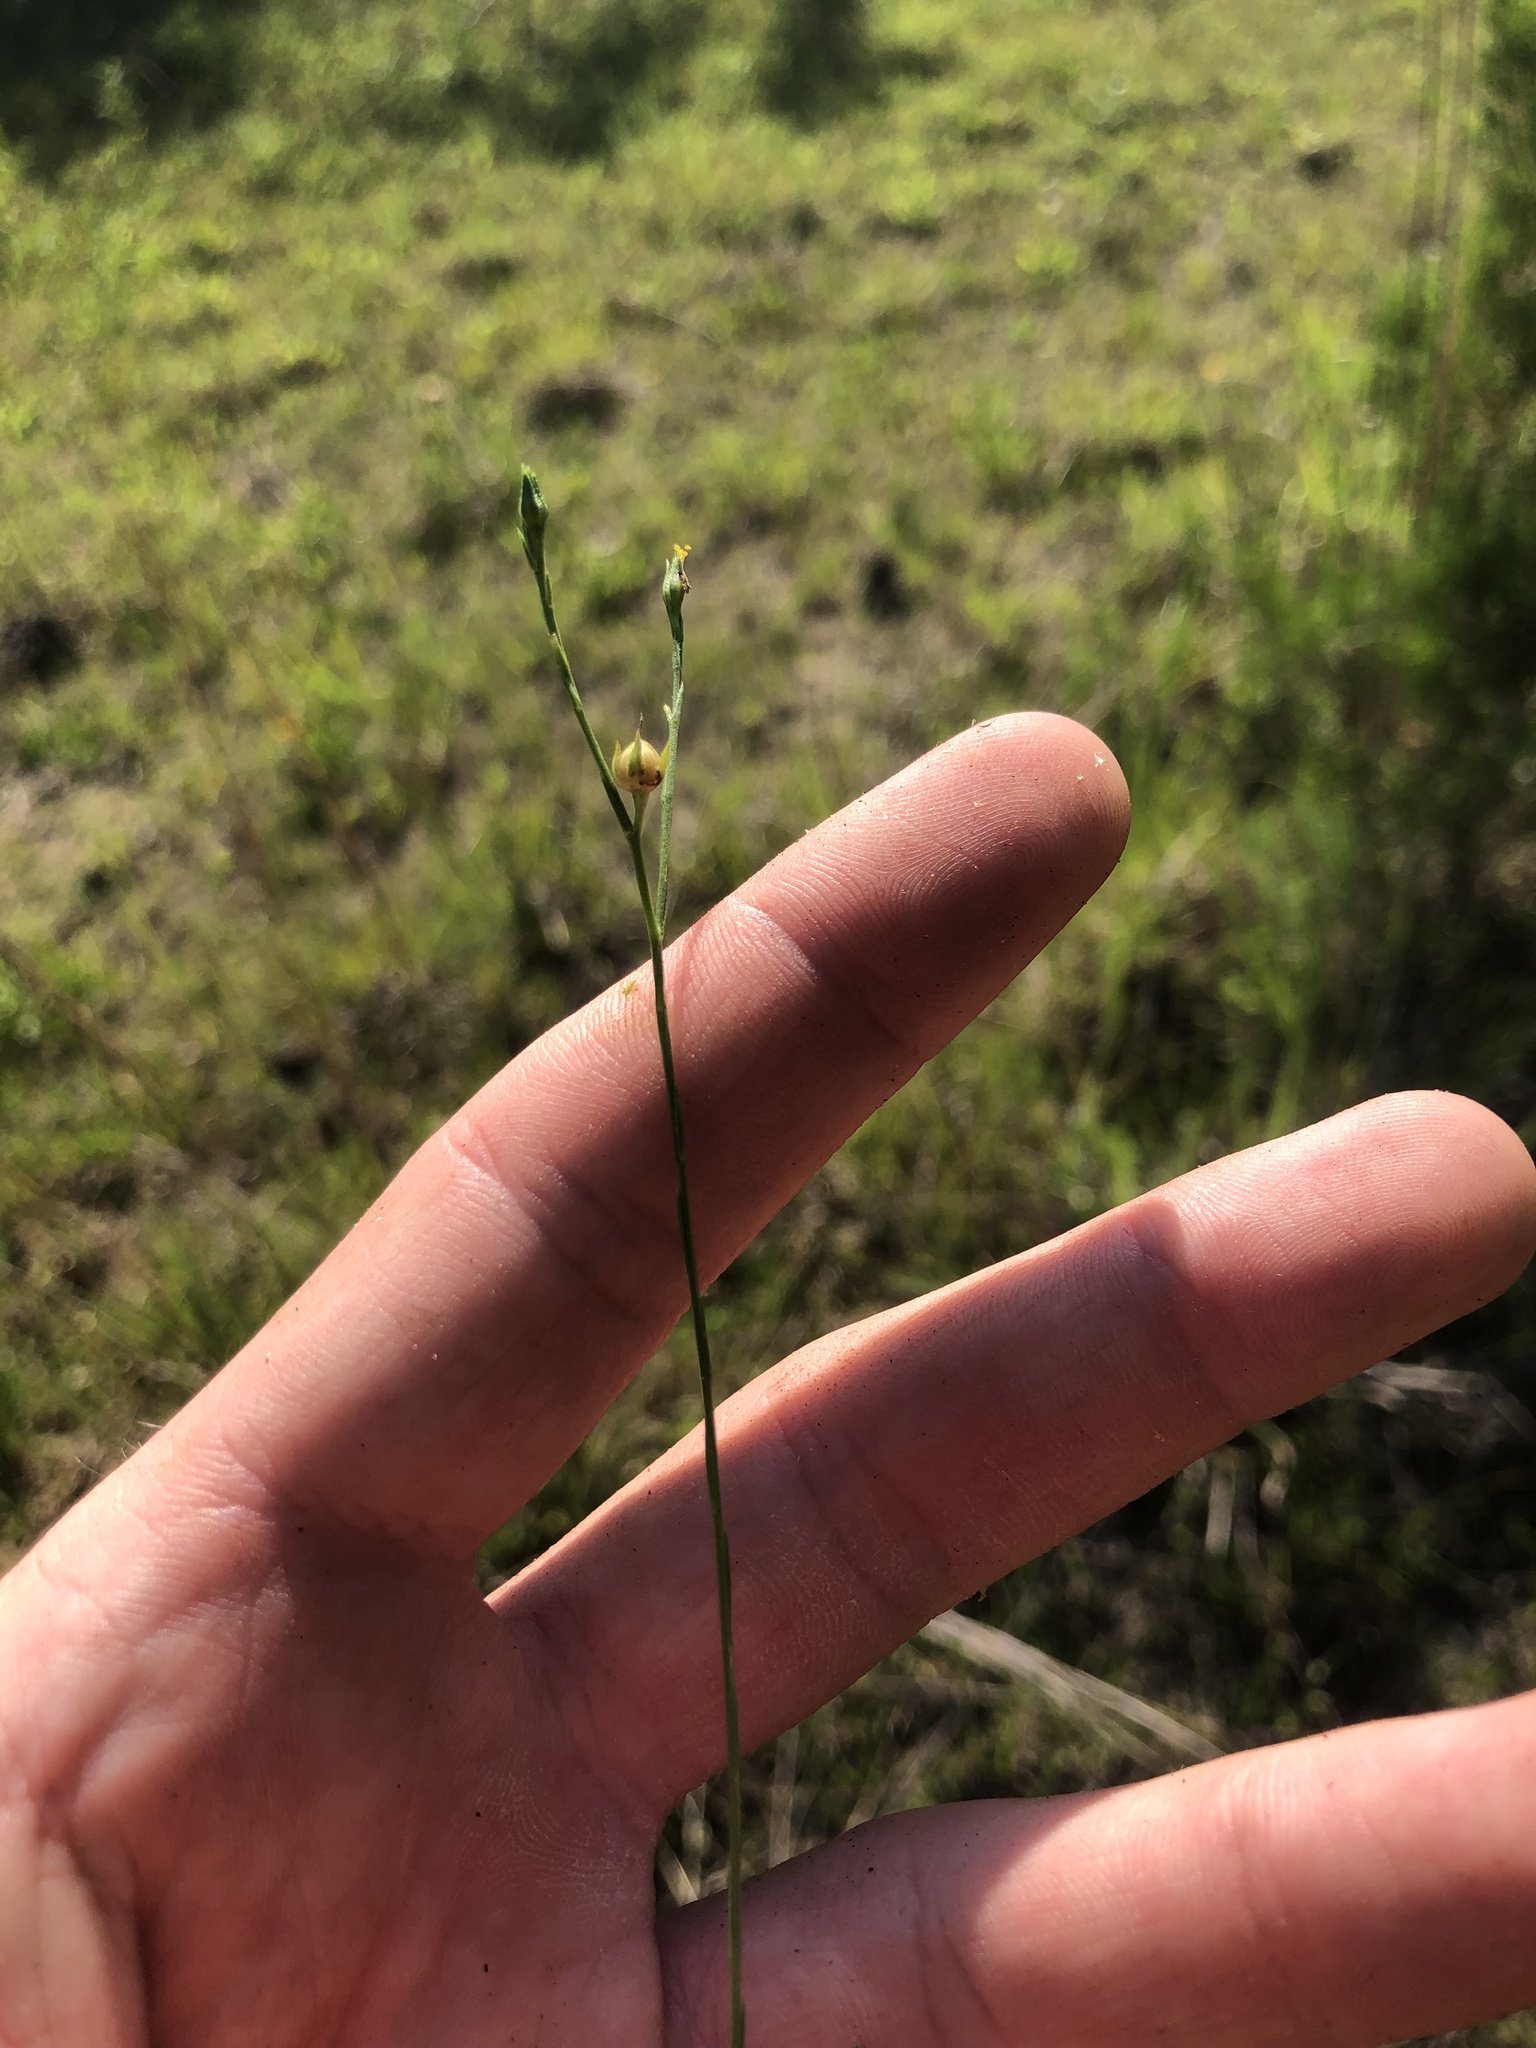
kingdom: Plantae
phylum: Tracheophyta
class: Magnoliopsida
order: Malpighiales
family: Linaceae
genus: Linum
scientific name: Linum sulcatum
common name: Grooved flax
